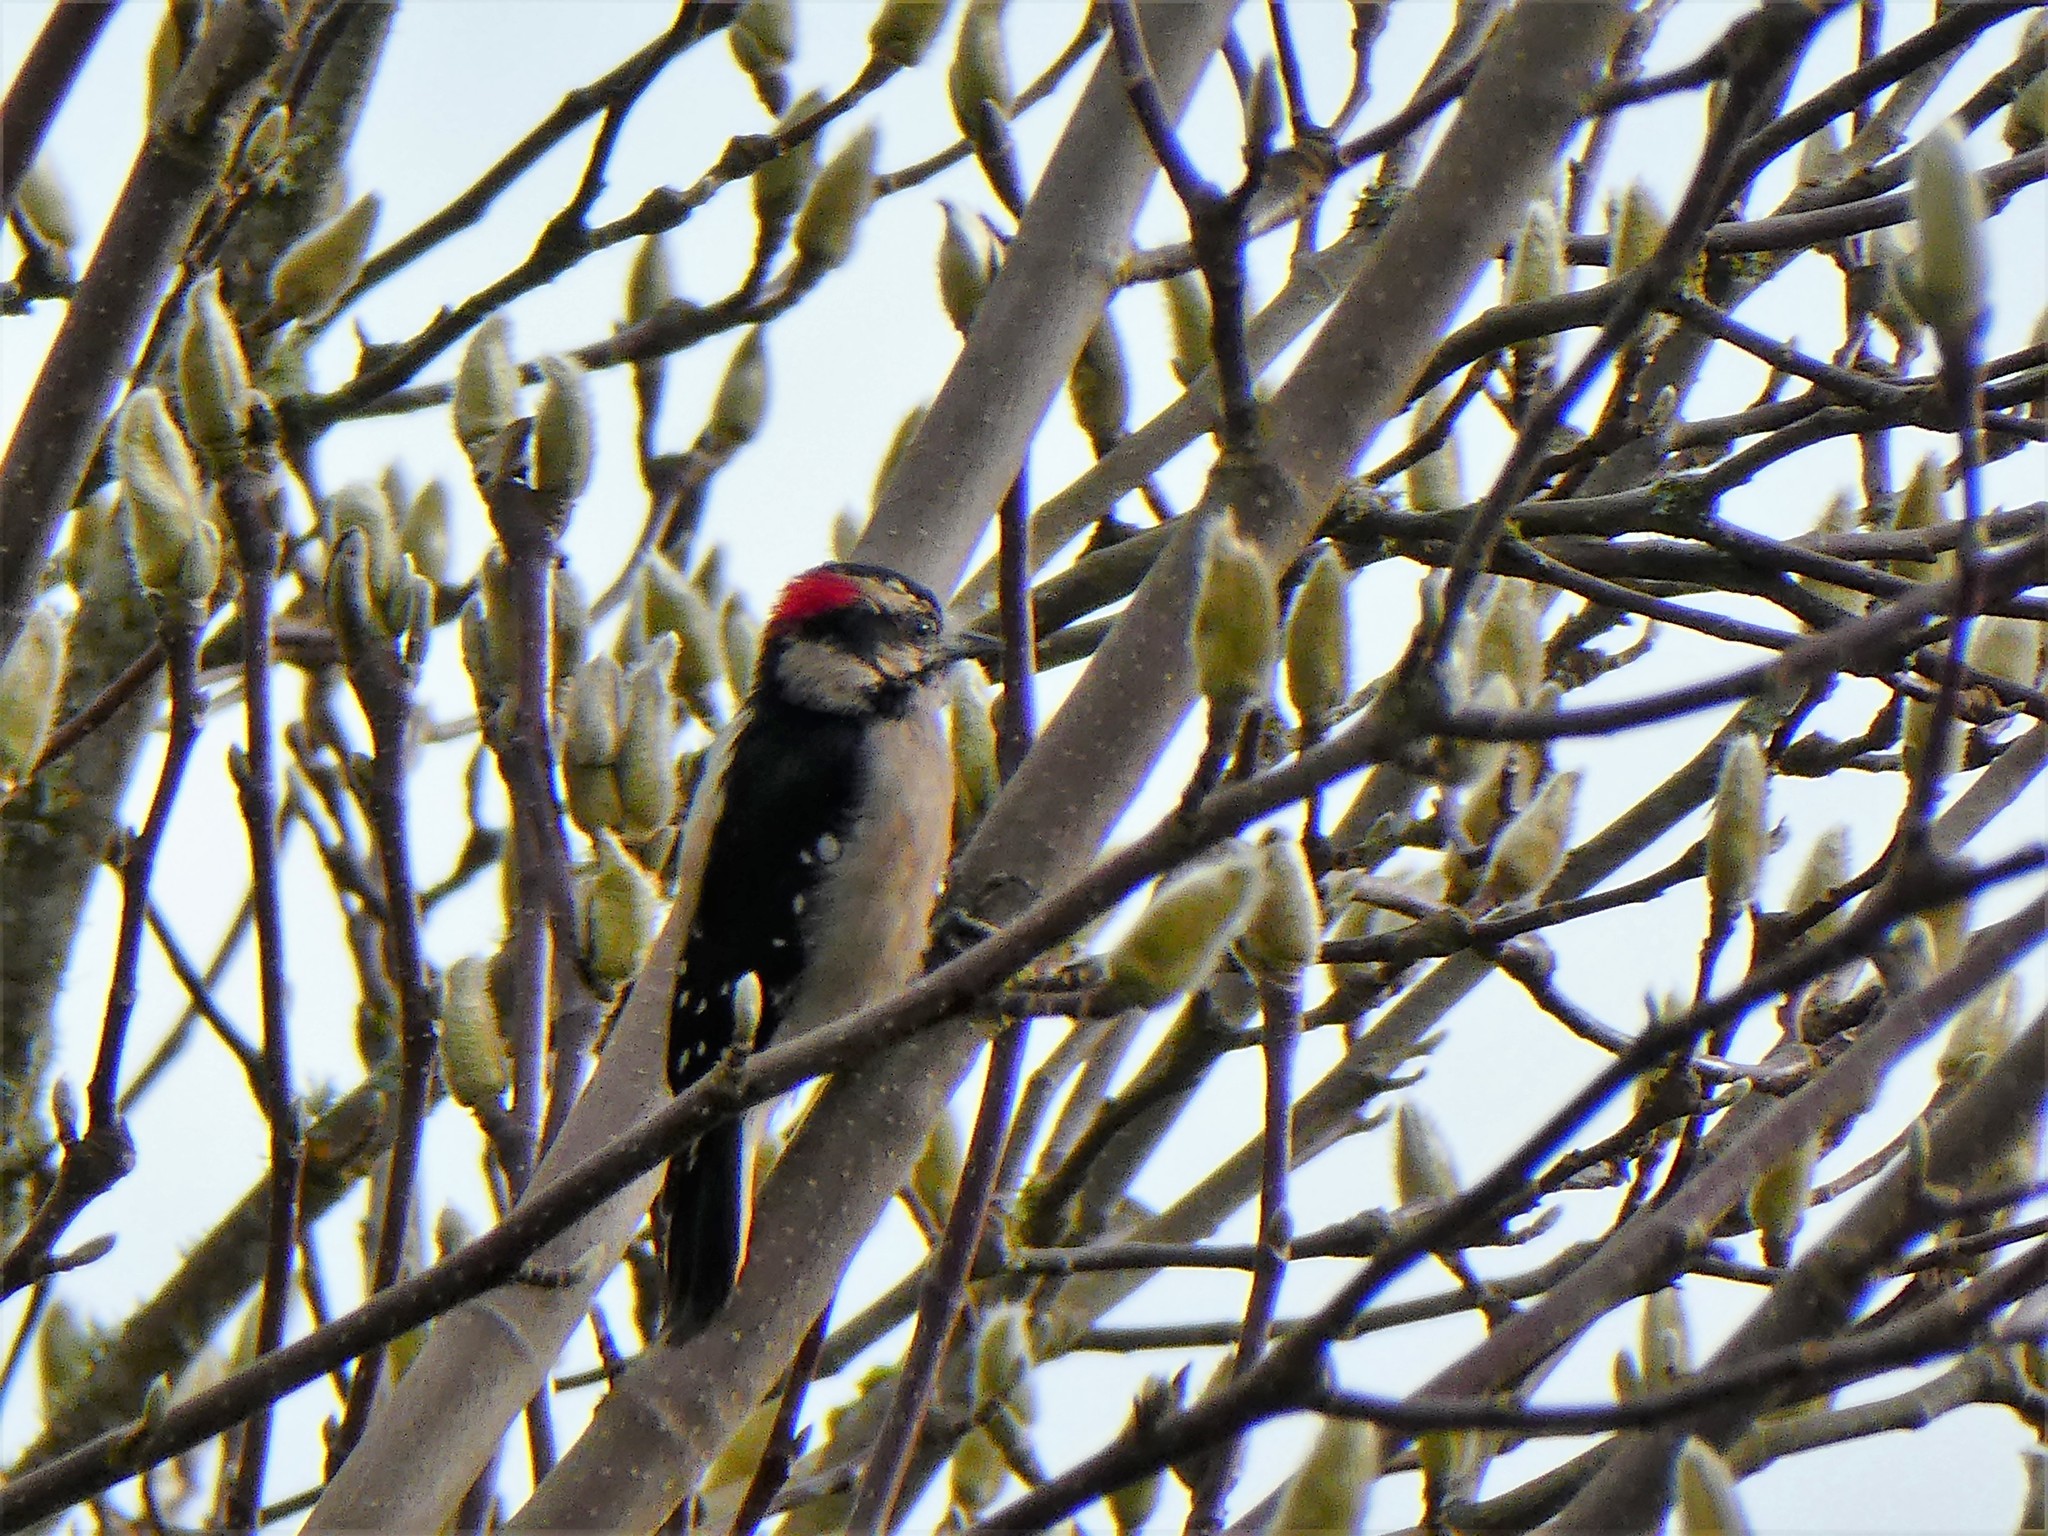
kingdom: Animalia
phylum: Chordata
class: Aves
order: Piciformes
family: Picidae
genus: Dryobates
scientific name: Dryobates pubescens
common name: Downy woodpecker
